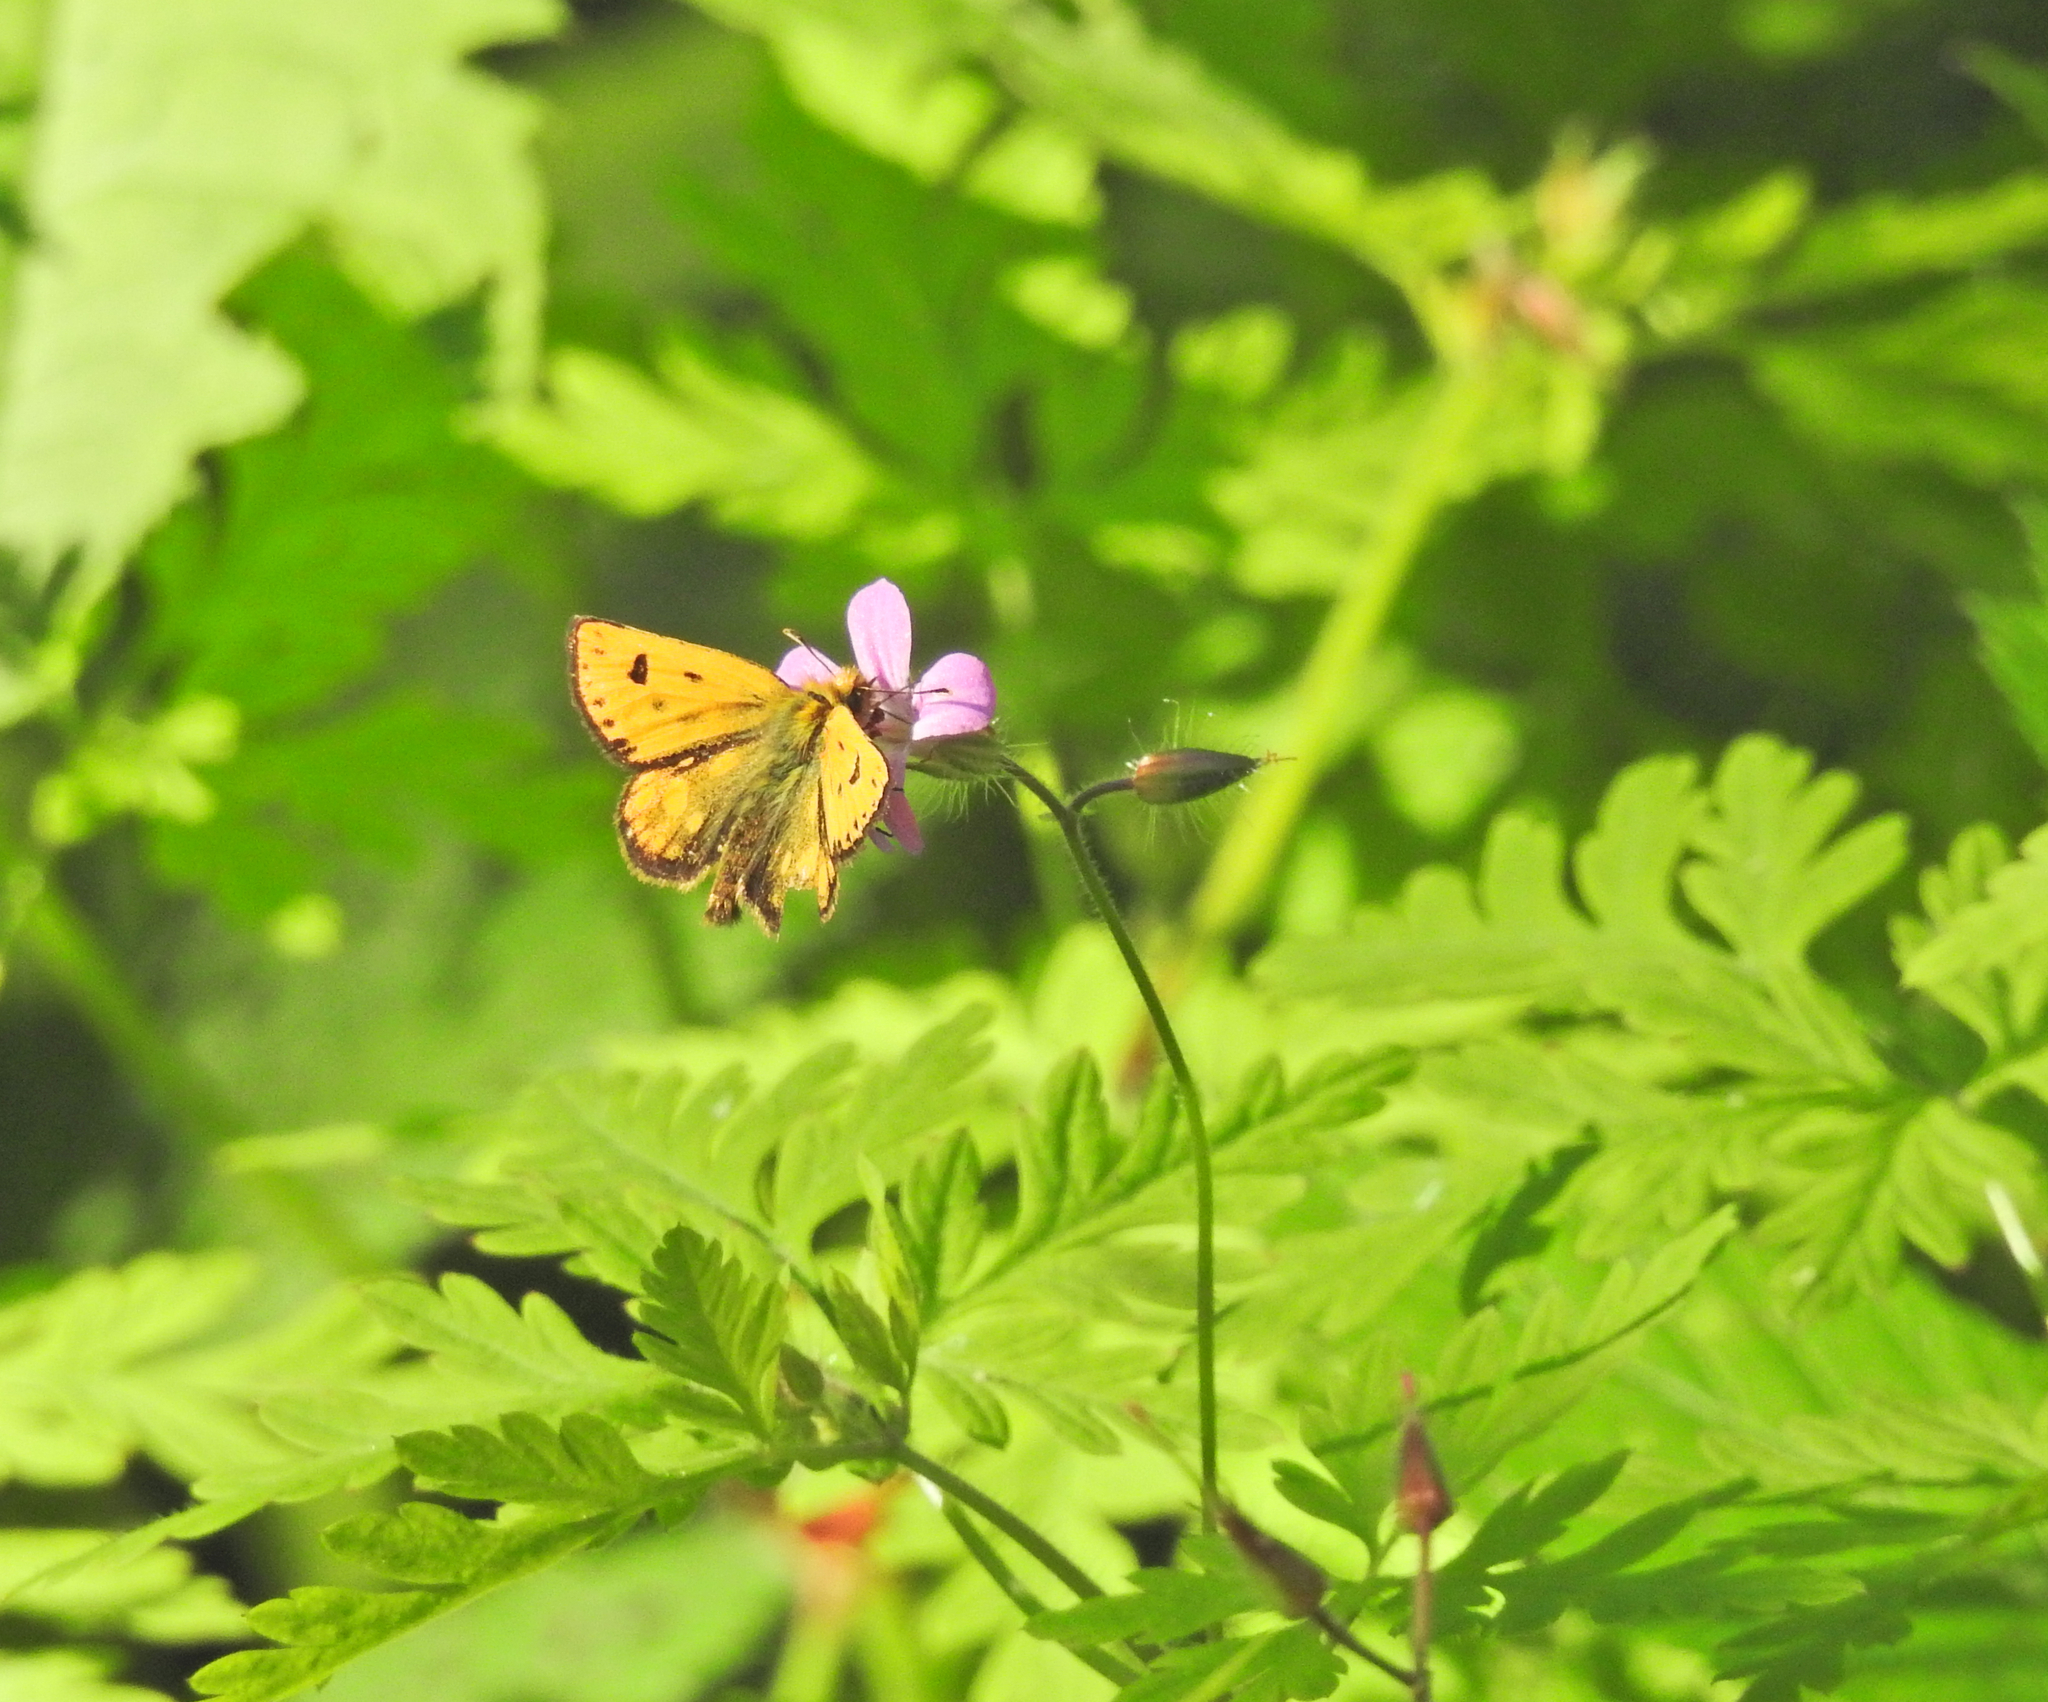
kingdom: Animalia
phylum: Arthropoda
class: Insecta
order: Lepidoptera
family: Hesperiidae
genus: Carterocephalus
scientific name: Carterocephalus silvicola
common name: Northern chequered skipper
